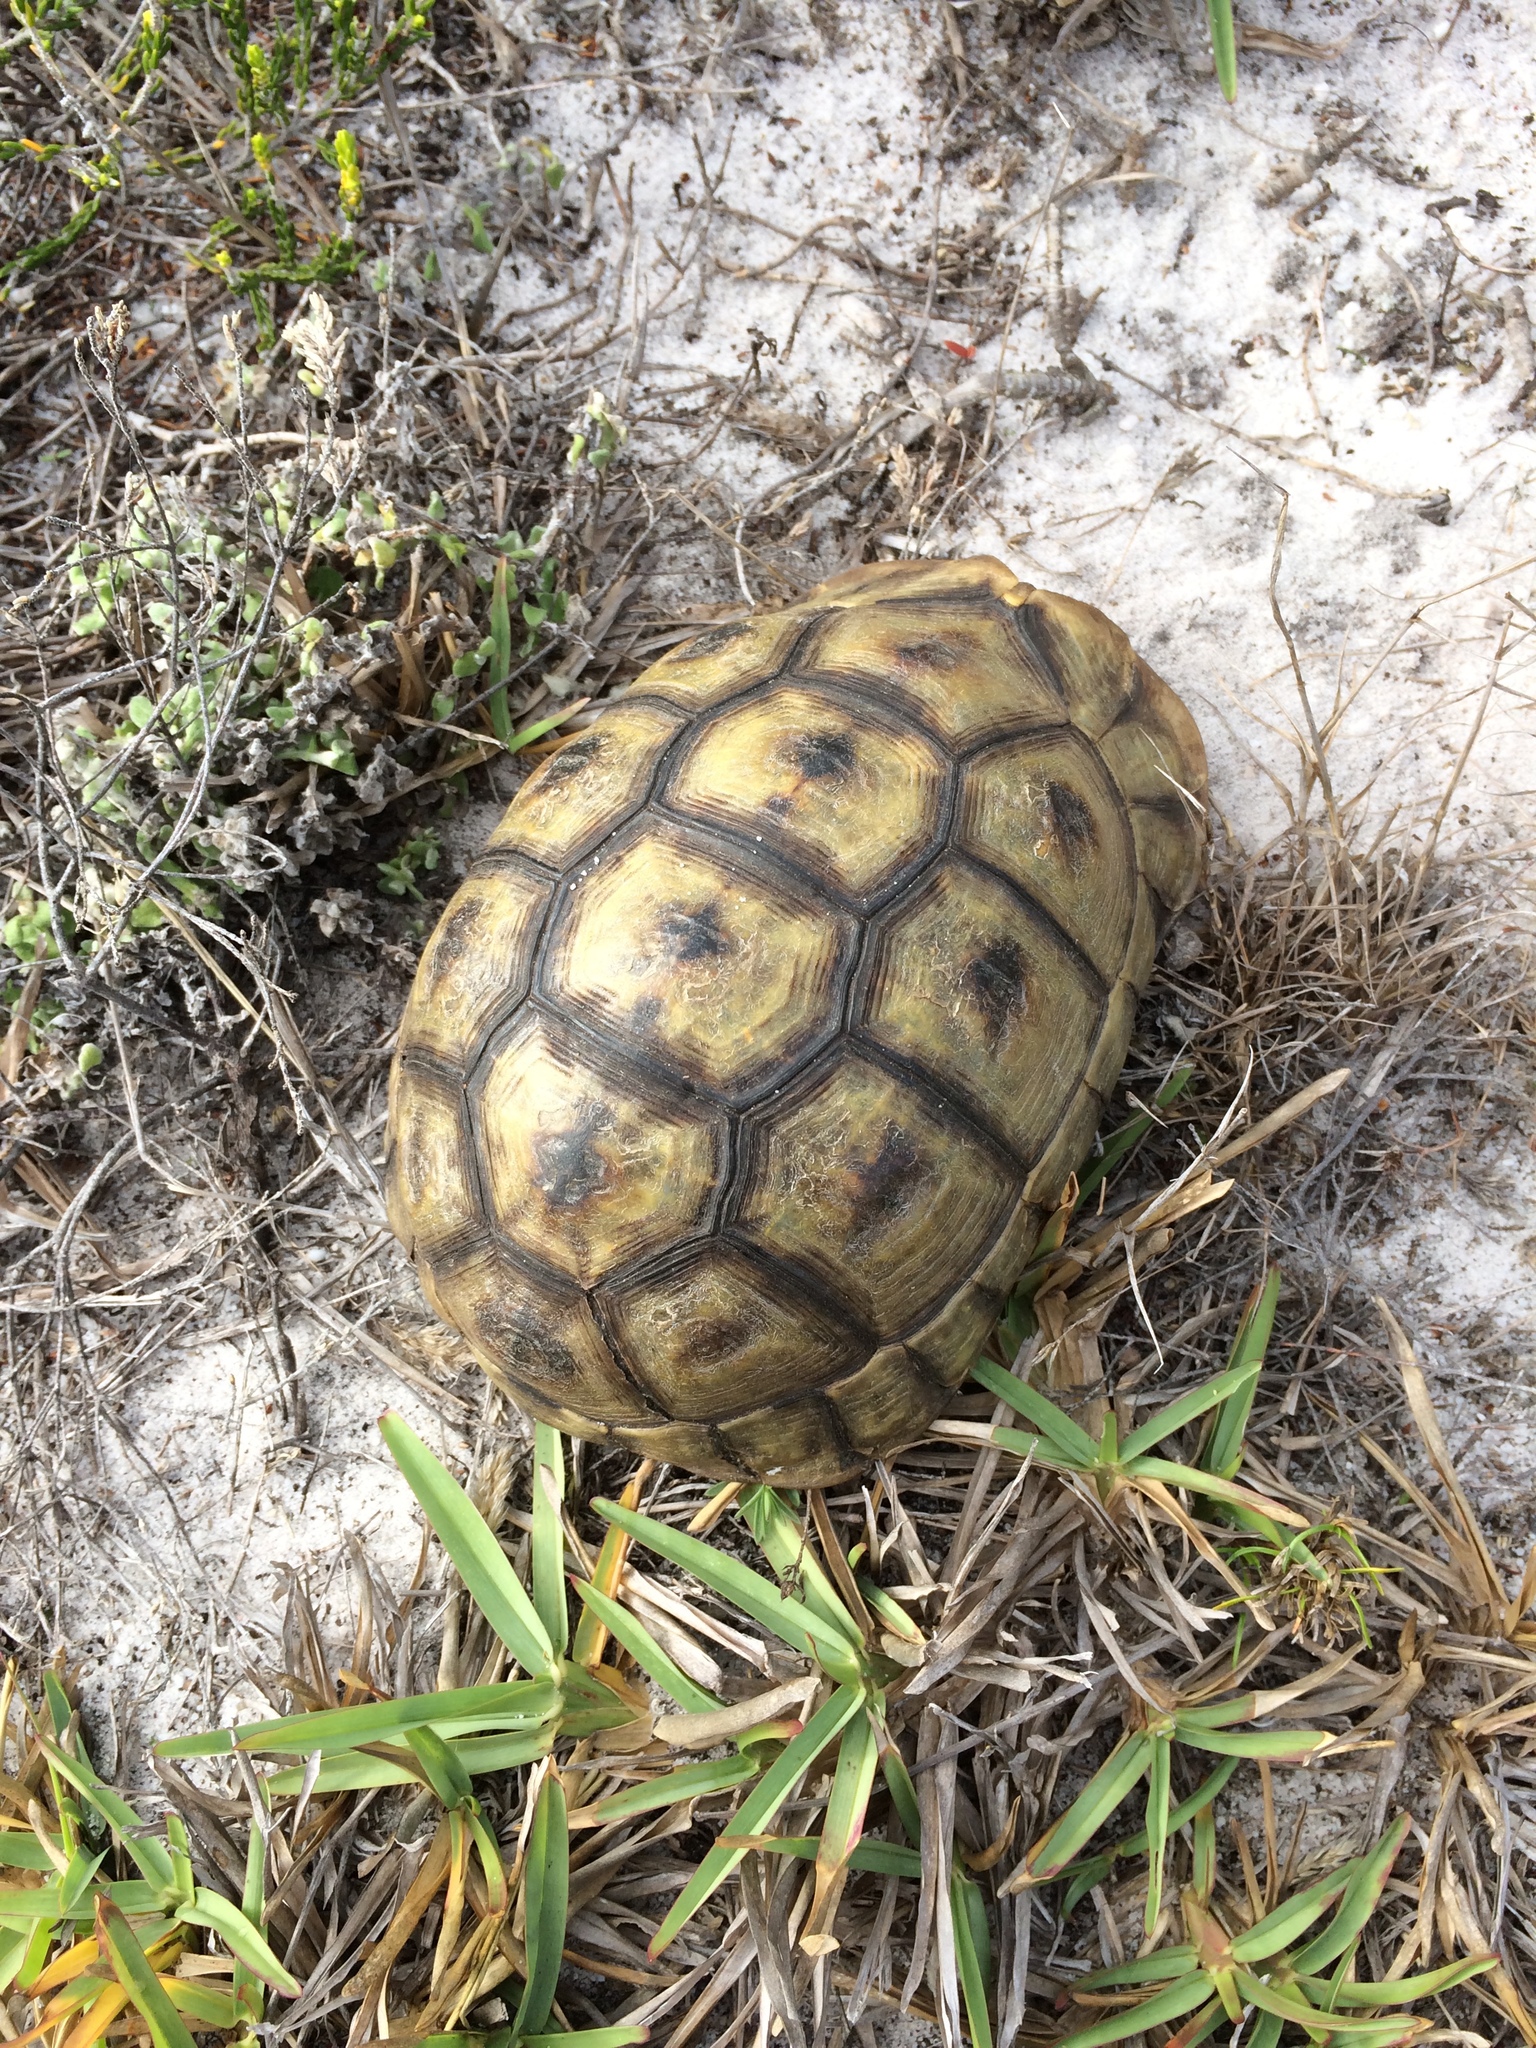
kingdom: Animalia
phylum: Chordata
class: Testudines
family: Testudinidae
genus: Chersina
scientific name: Chersina angulata
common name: South african bowsprit tortoise
